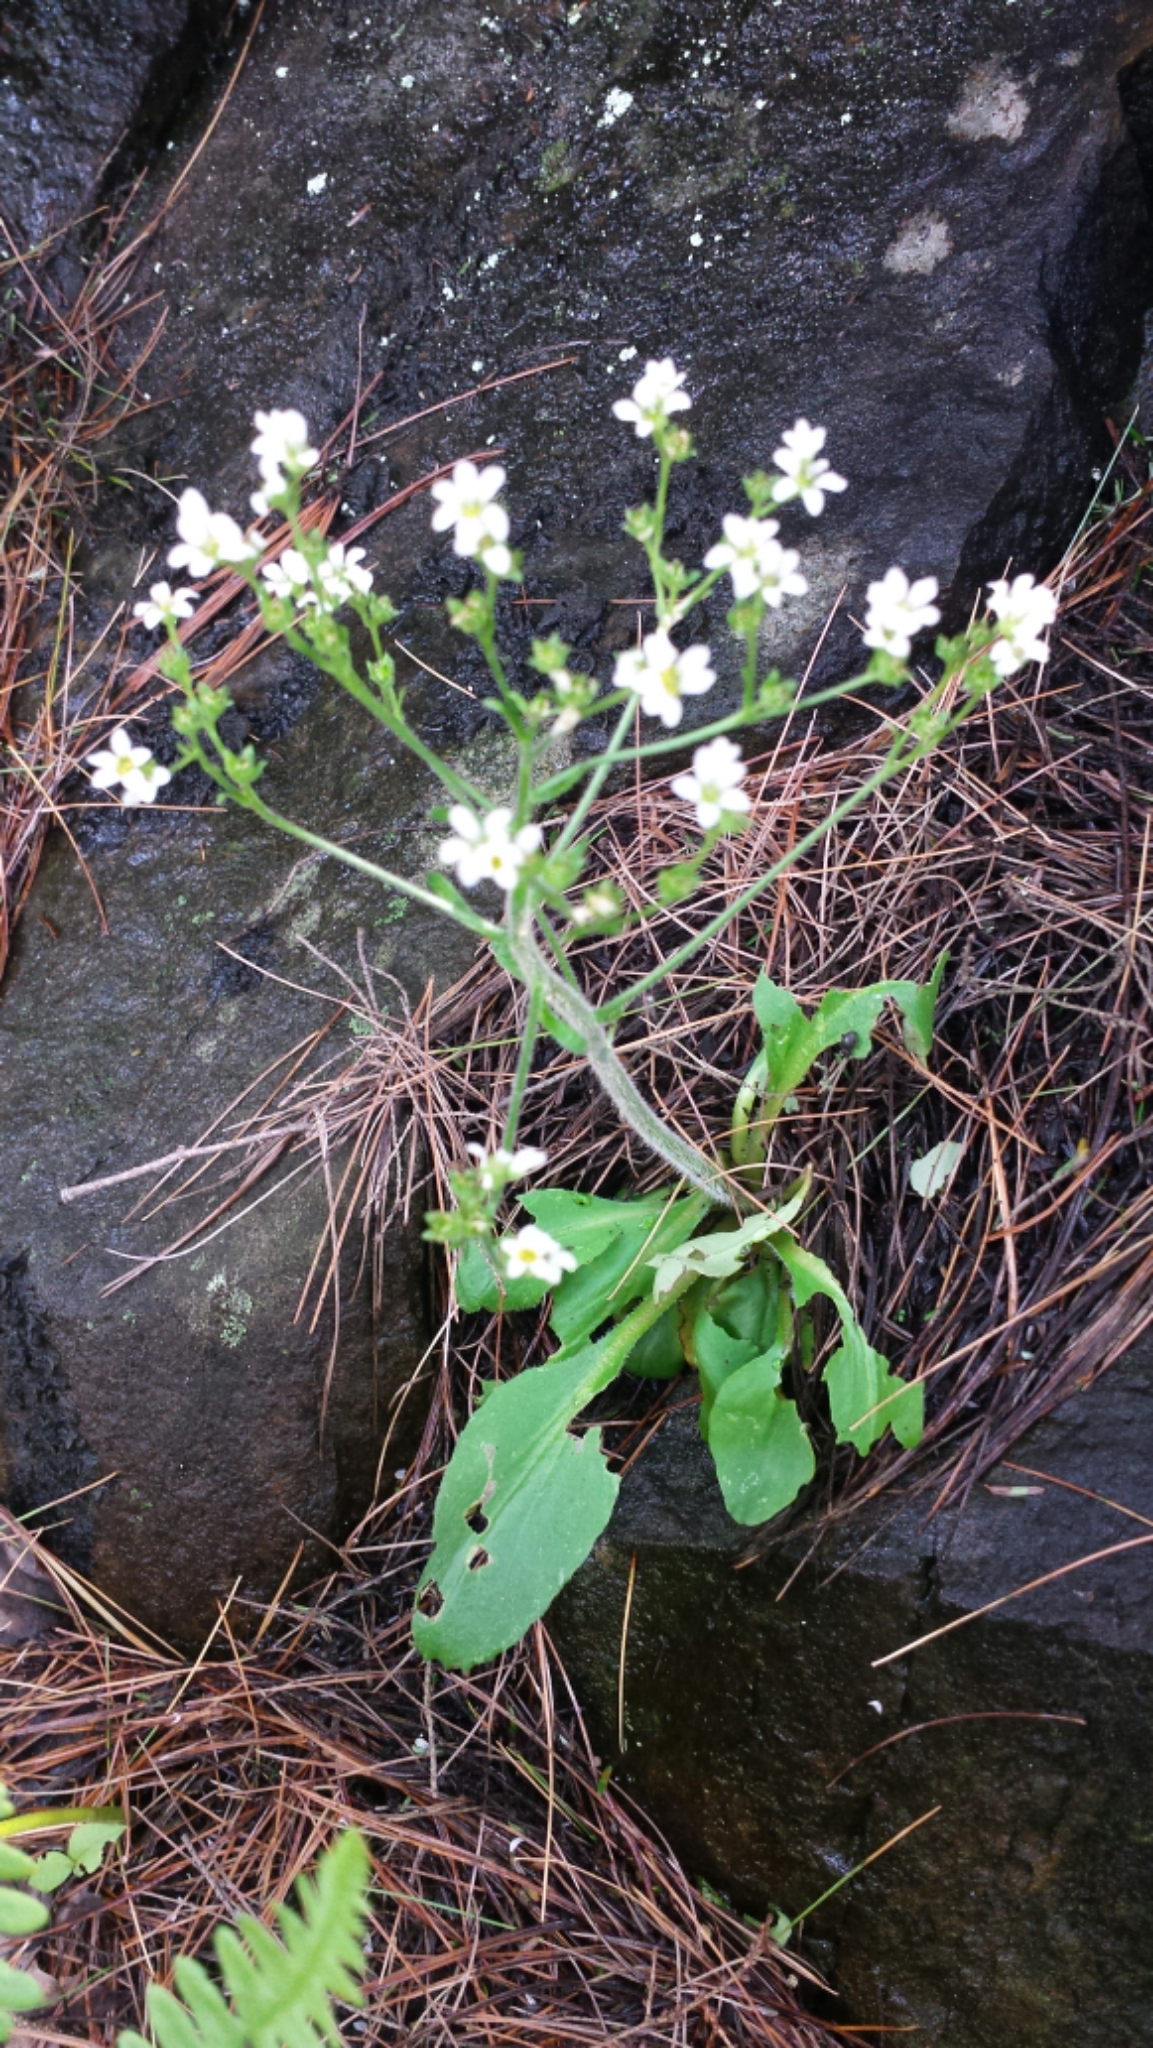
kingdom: Plantae
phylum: Tracheophyta
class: Magnoliopsida
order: Saxifragales
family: Saxifragaceae
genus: Micranthes
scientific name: Micranthes virginiensis
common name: Early saxifrage
